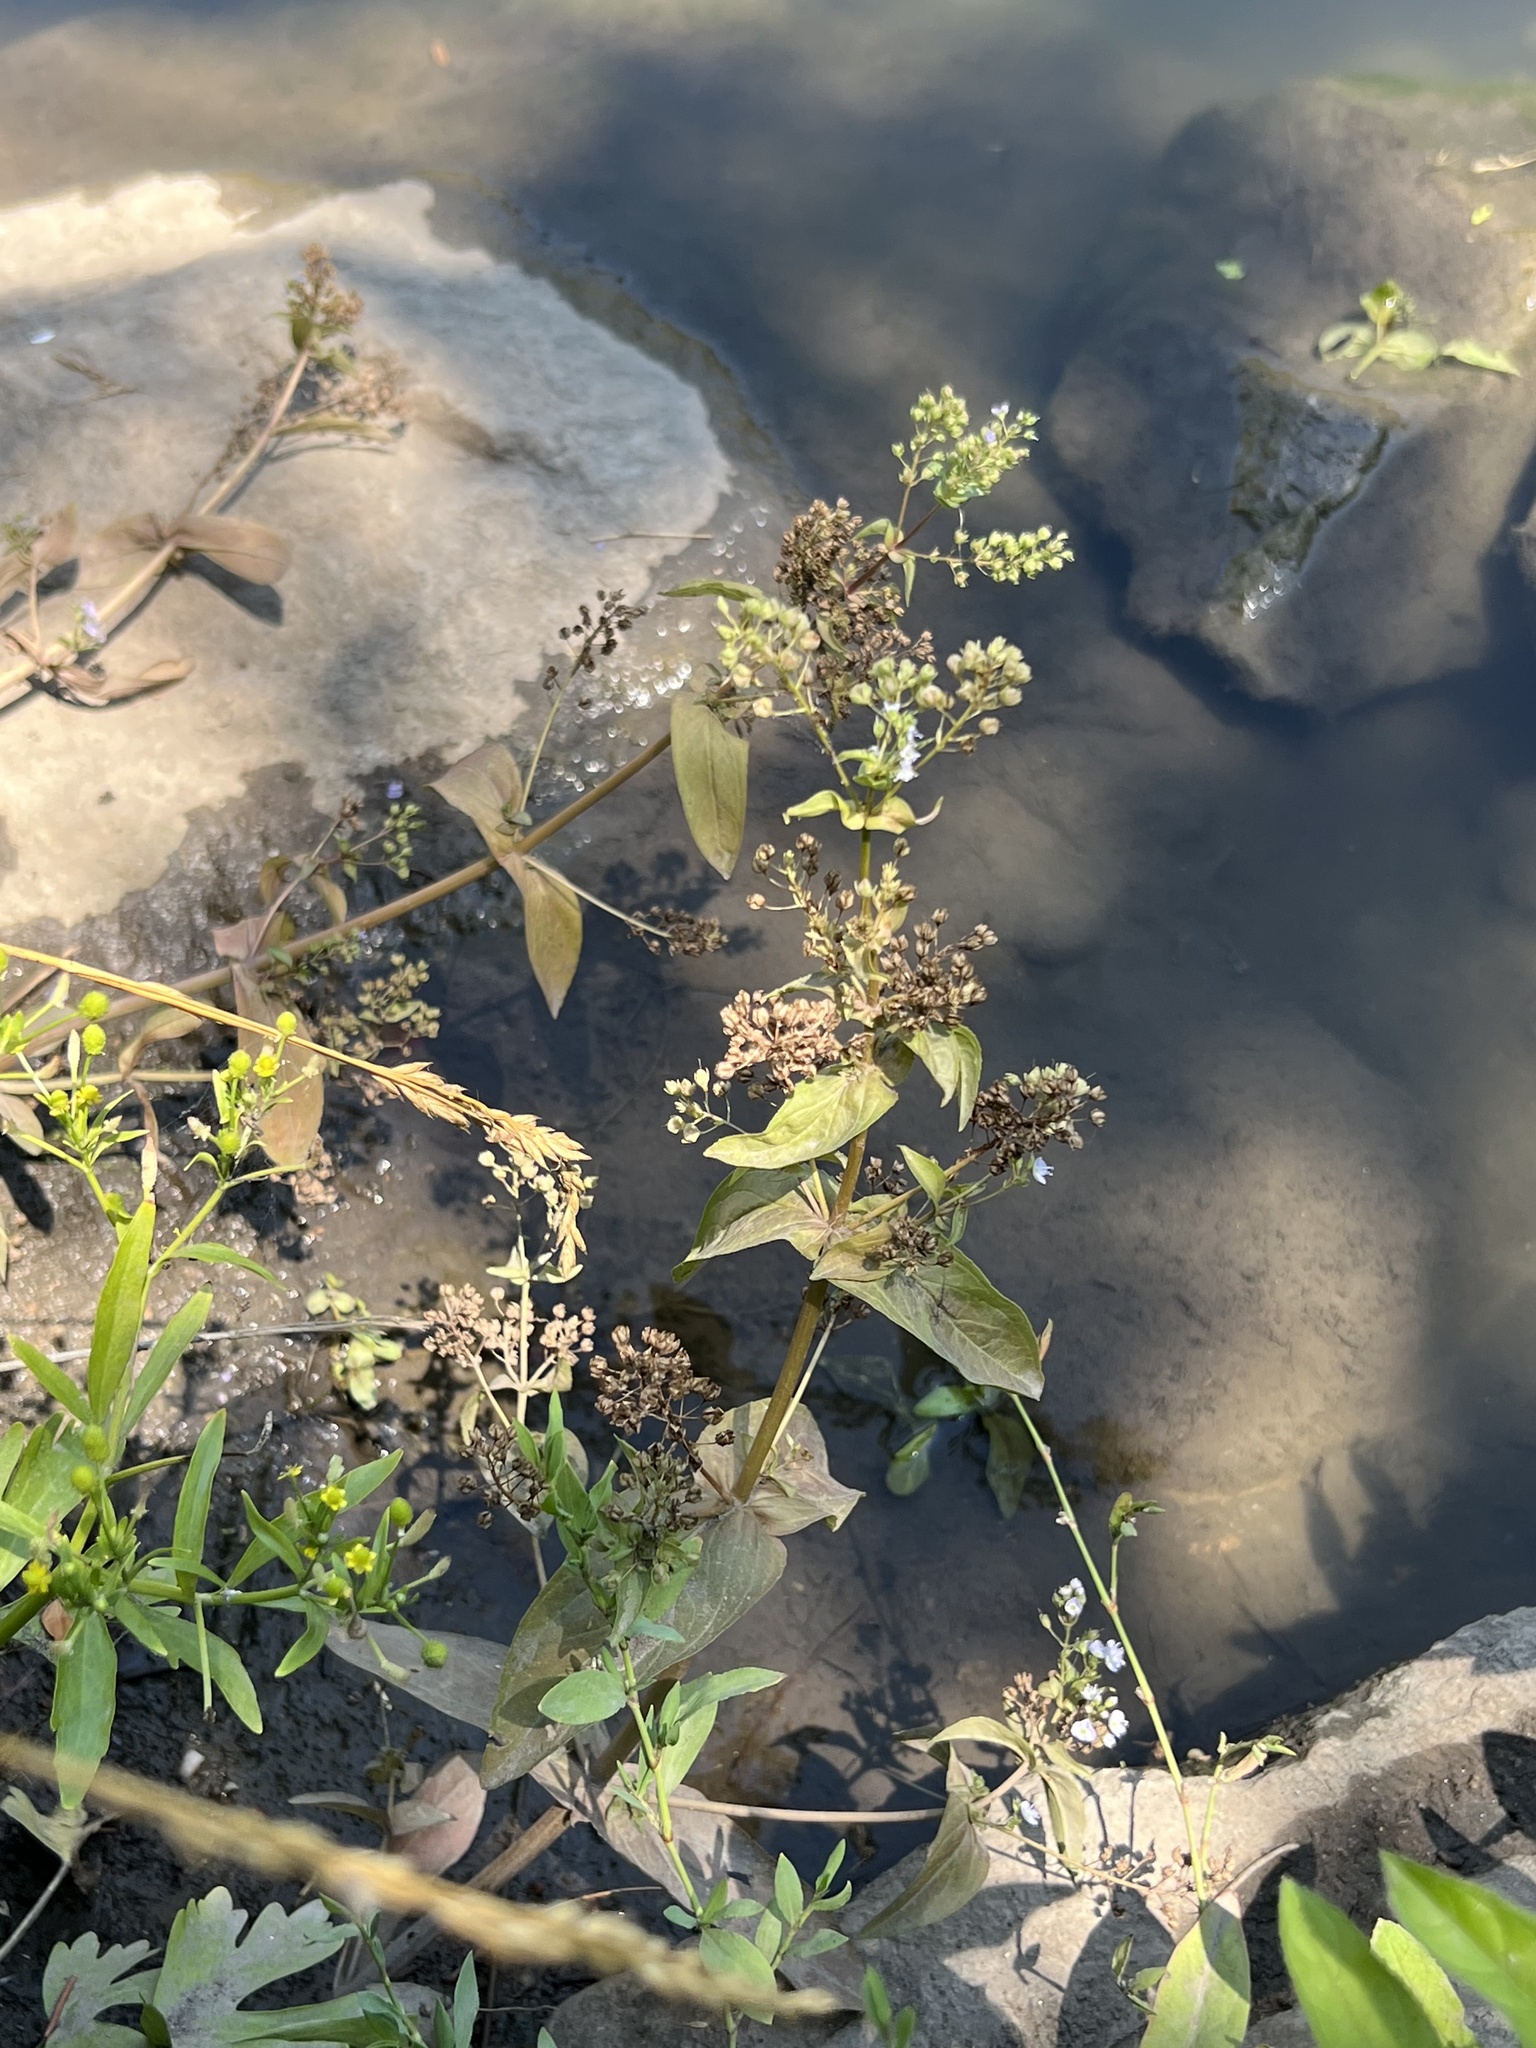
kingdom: Plantae
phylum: Tracheophyta
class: Magnoliopsida
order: Lamiales
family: Plantaginaceae
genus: Veronica
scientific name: Veronica anagallis-aquatica
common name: Water speedwell
